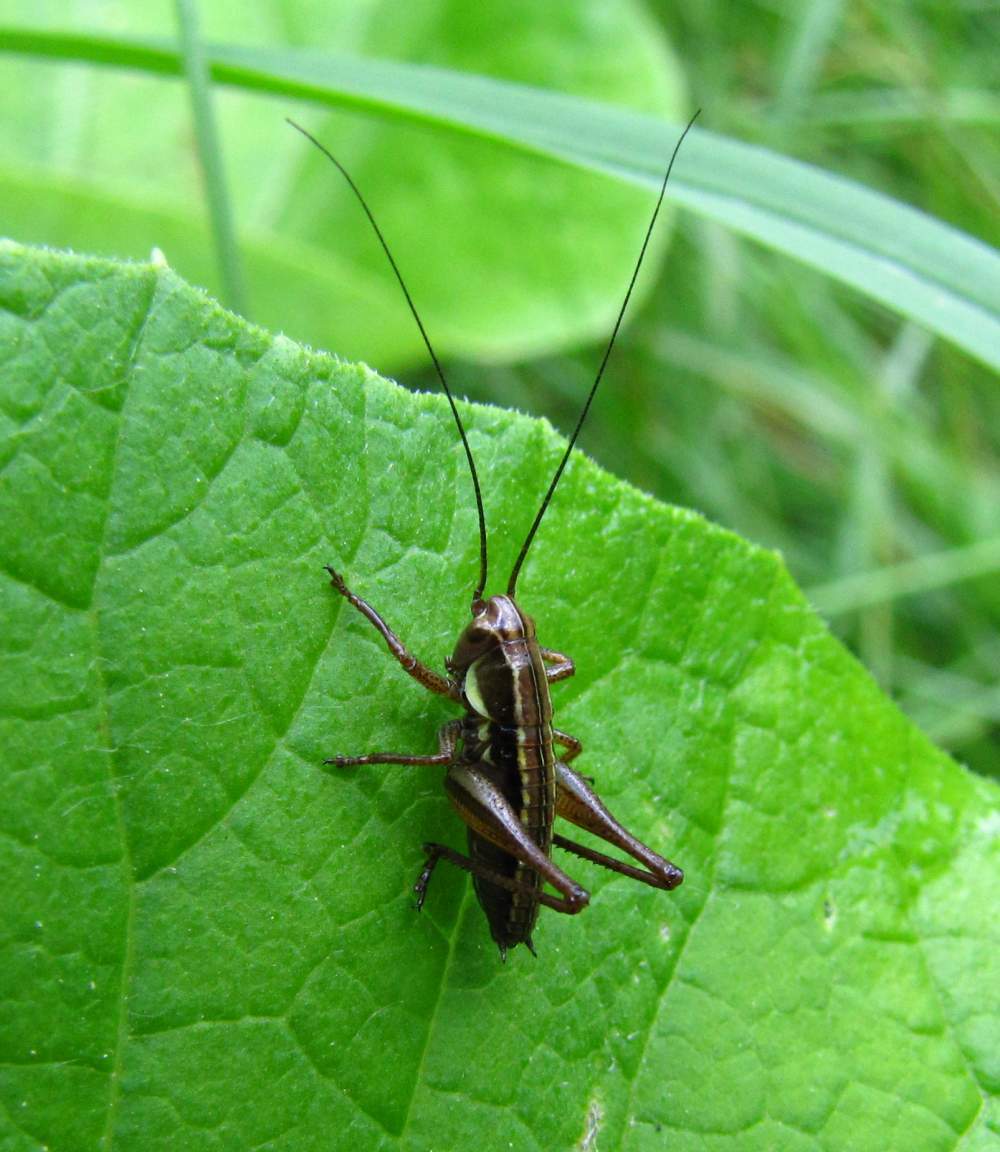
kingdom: Animalia
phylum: Arthropoda
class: Insecta
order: Orthoptera
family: Tettigoniidae
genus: Roeseliana
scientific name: Roeseliana roeselii
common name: Roesel's bush cricket
